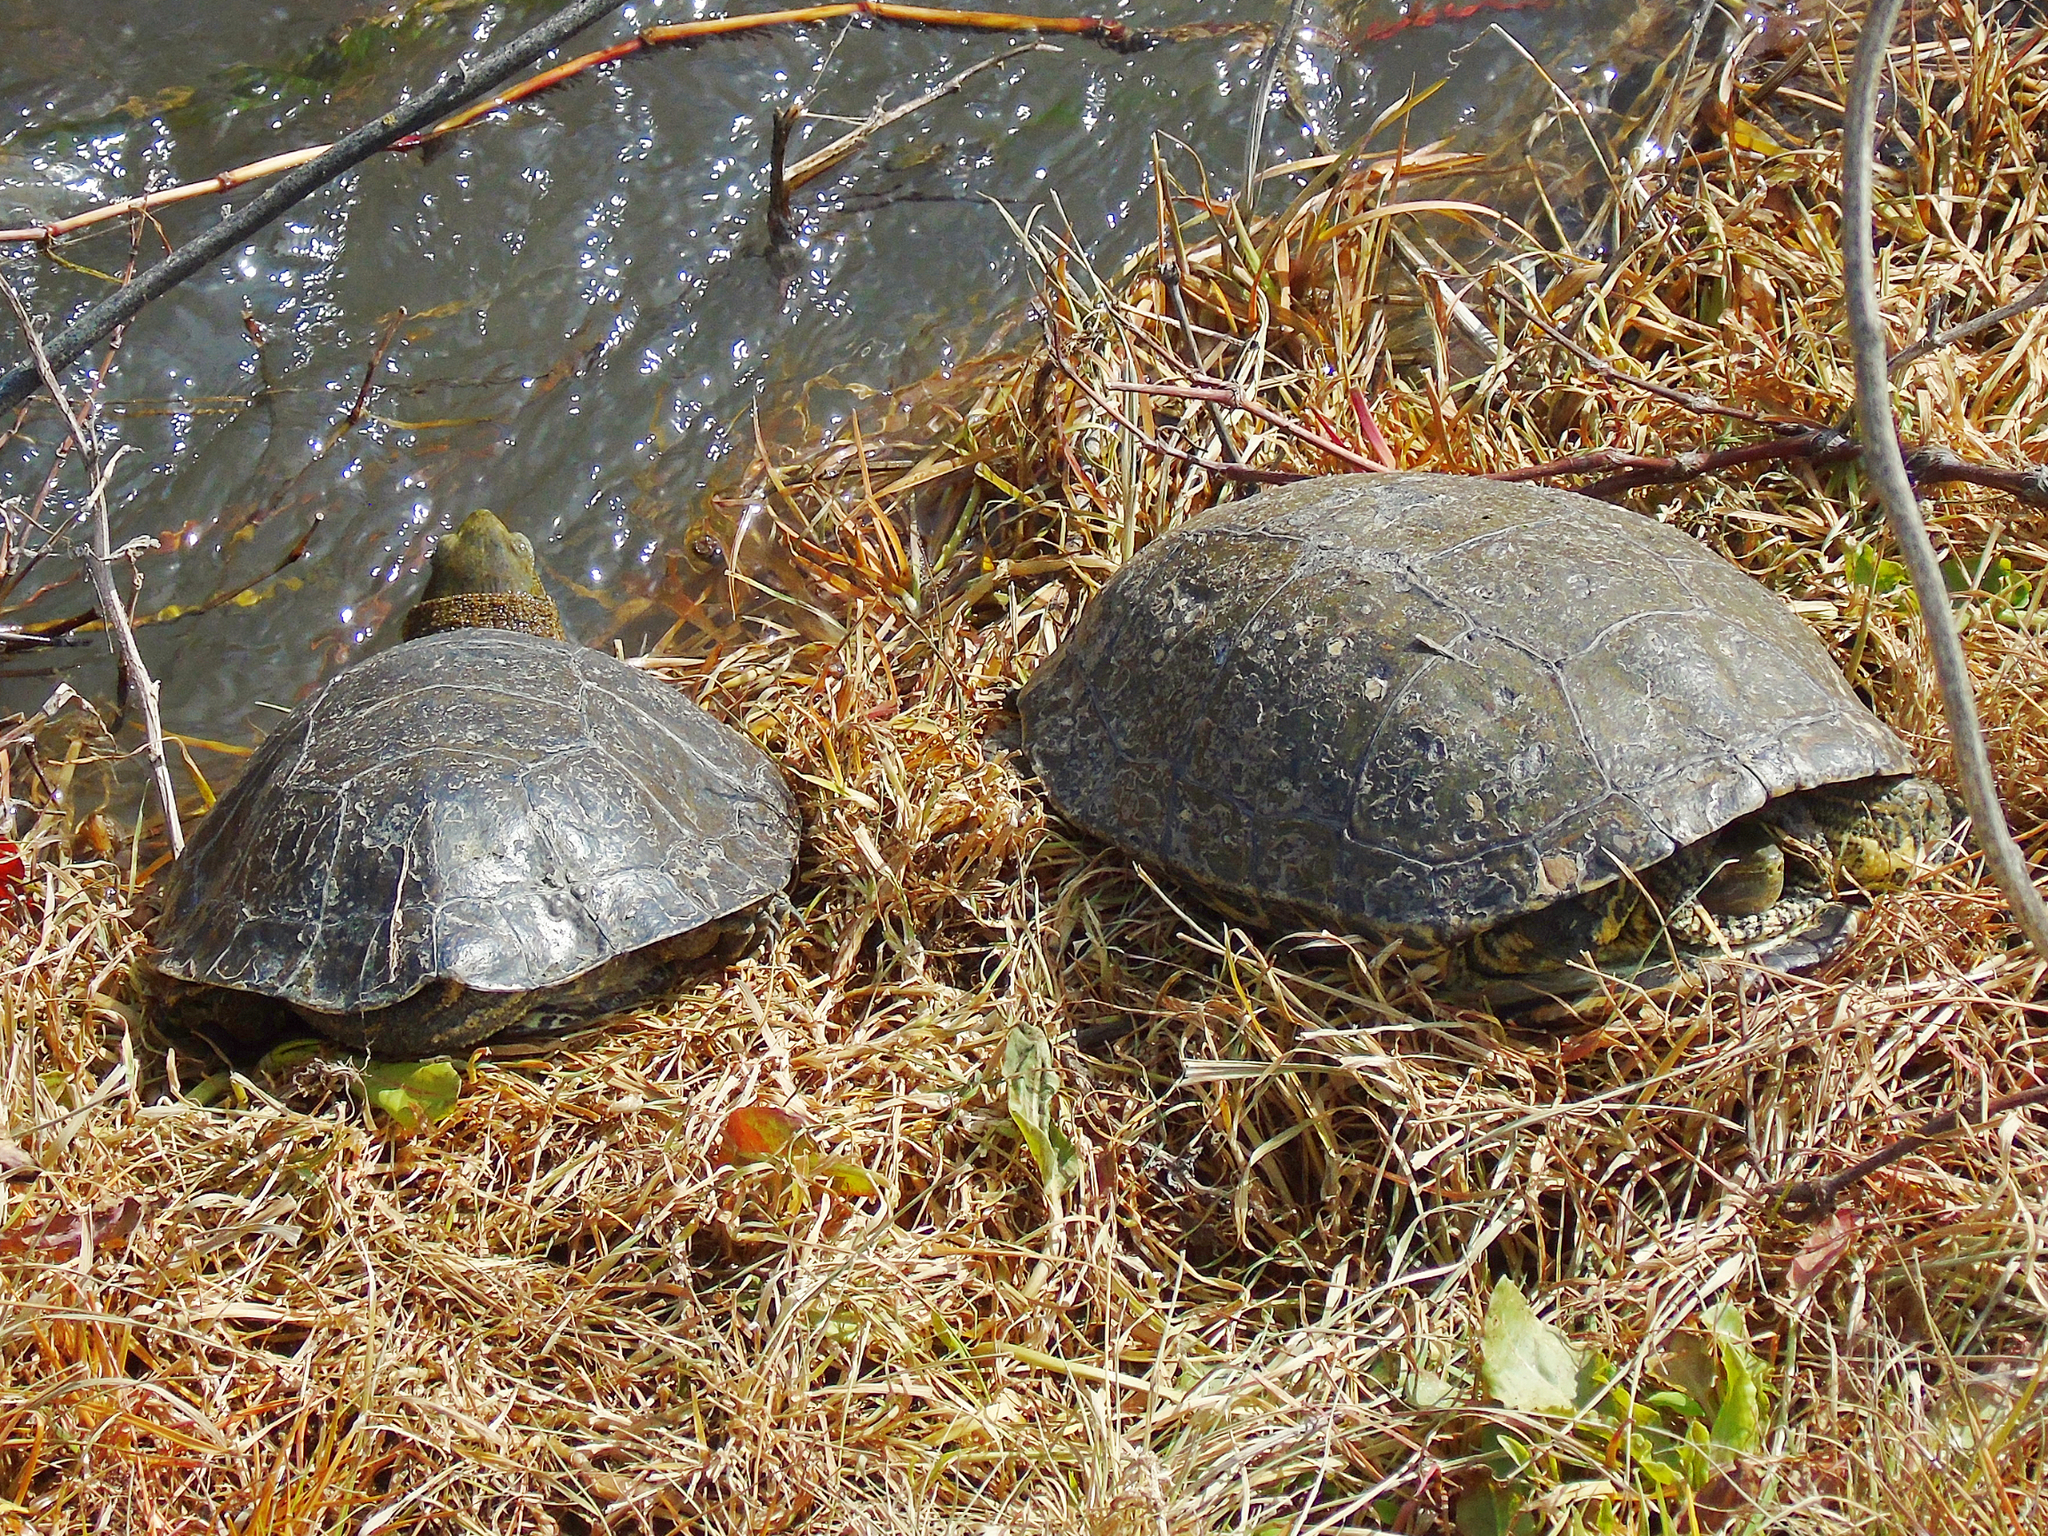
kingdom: Animalia
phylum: Chordata
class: Testudines
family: Geoemydidae
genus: Mauremys
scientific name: Mauremys caspica
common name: Caspian turtle
